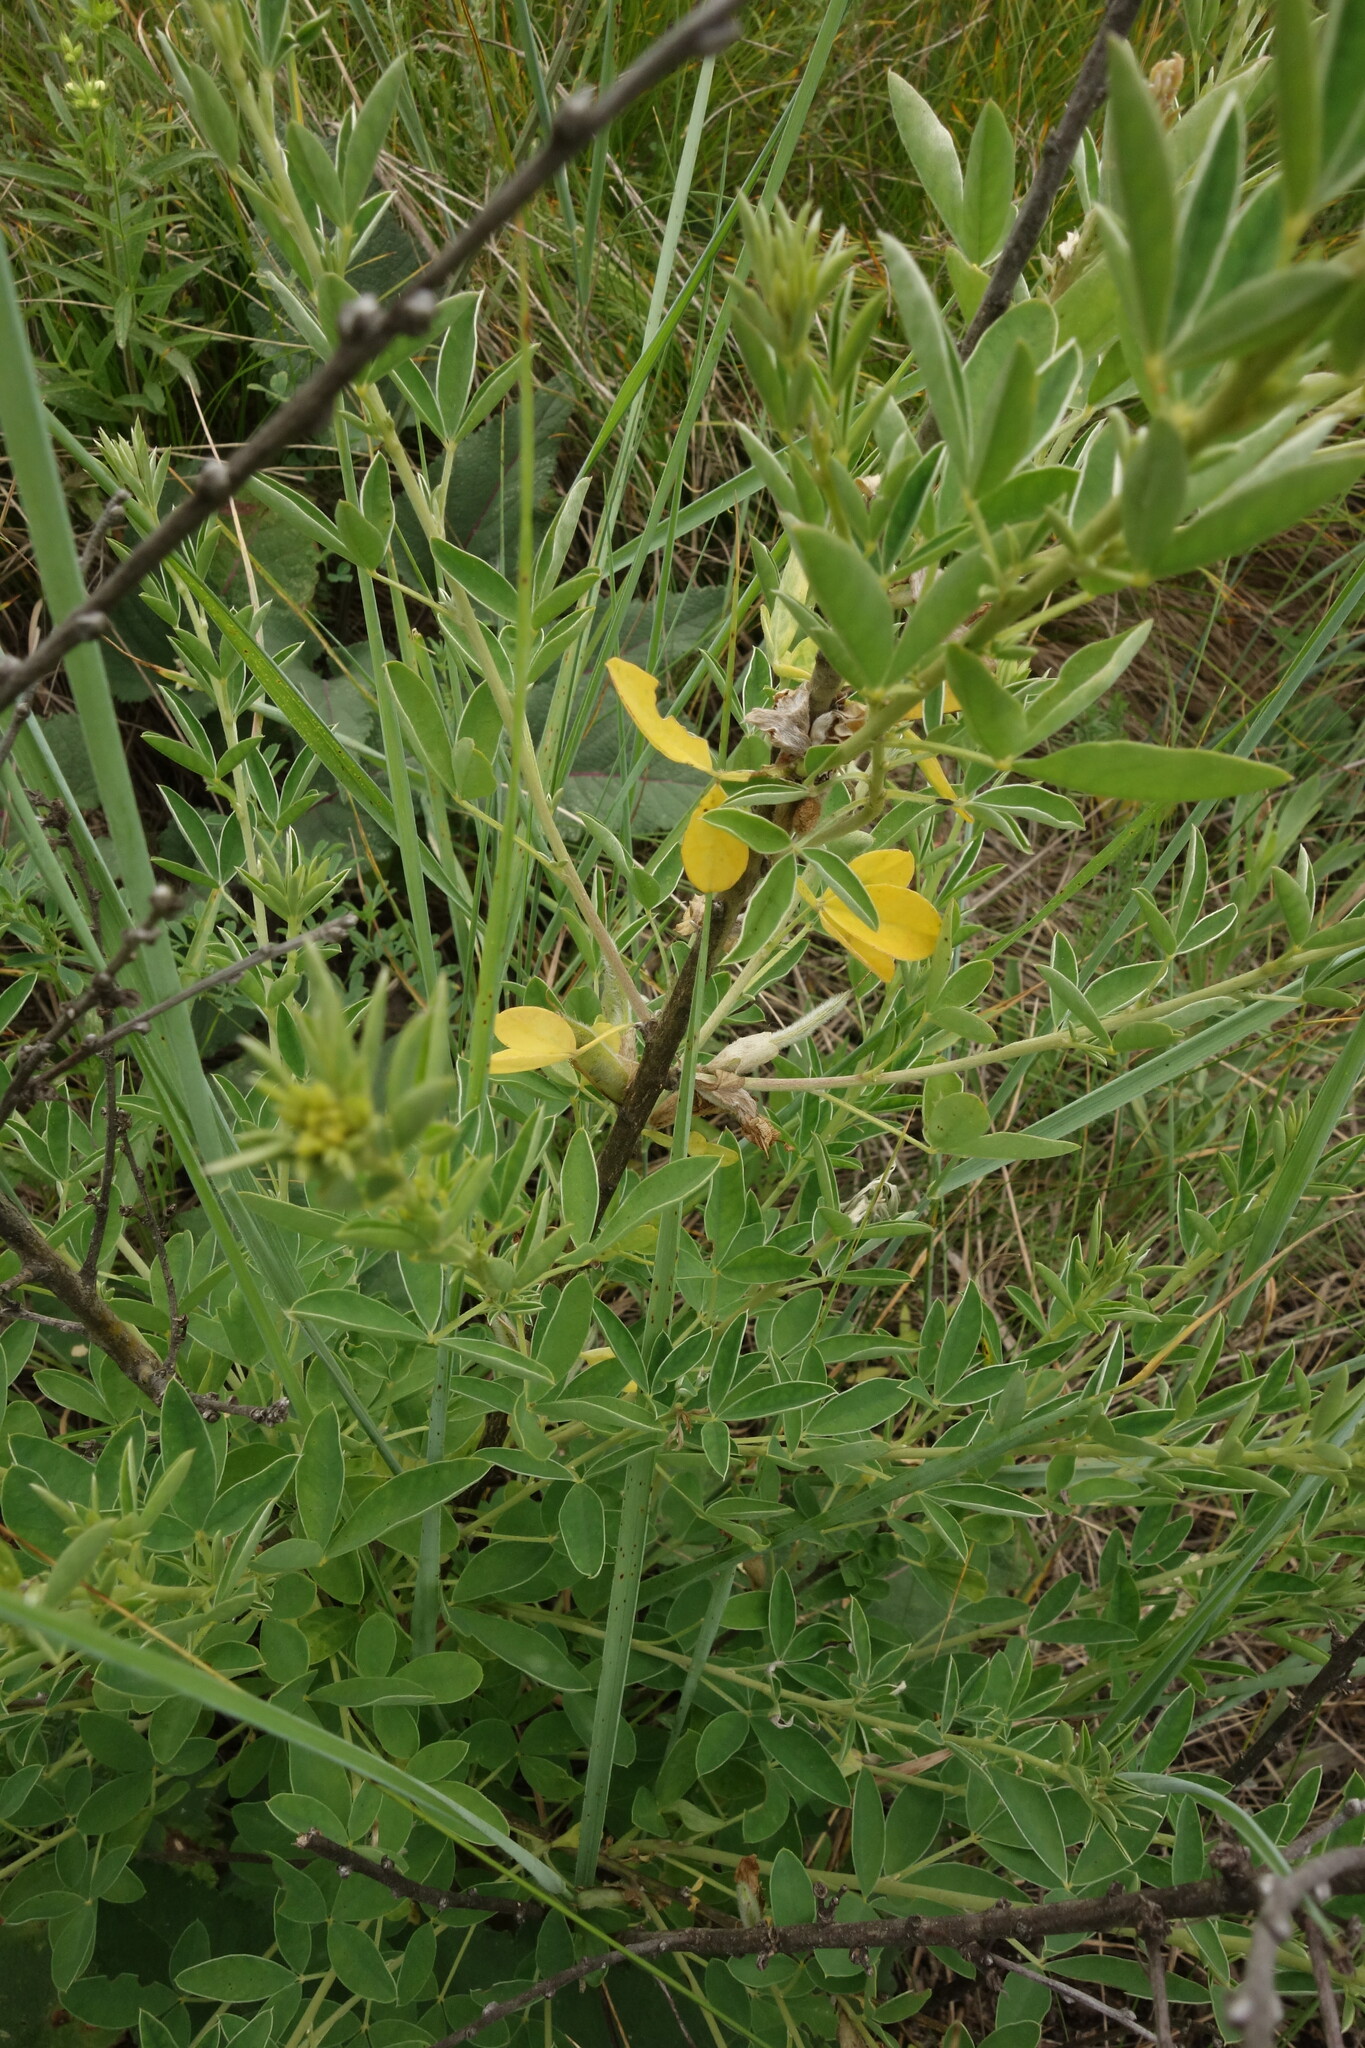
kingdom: Plantae
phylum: Tracheophyta
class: Magnoliopsida
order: Fabales
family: Fabaceae
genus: Chamaecytisus
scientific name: Chamaecytisus ruthenicus
